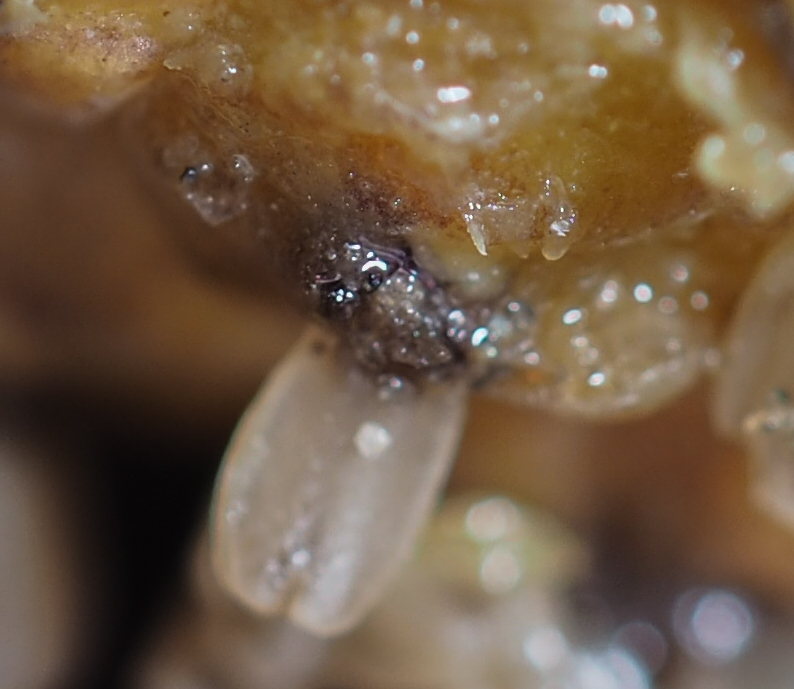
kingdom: Plantae
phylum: Tracheophyta
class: Liliopsida
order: Alismatales
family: Araceae
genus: Symplocarpus
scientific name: Symplocarpus foetidus
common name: Eastern skunk cabbage
